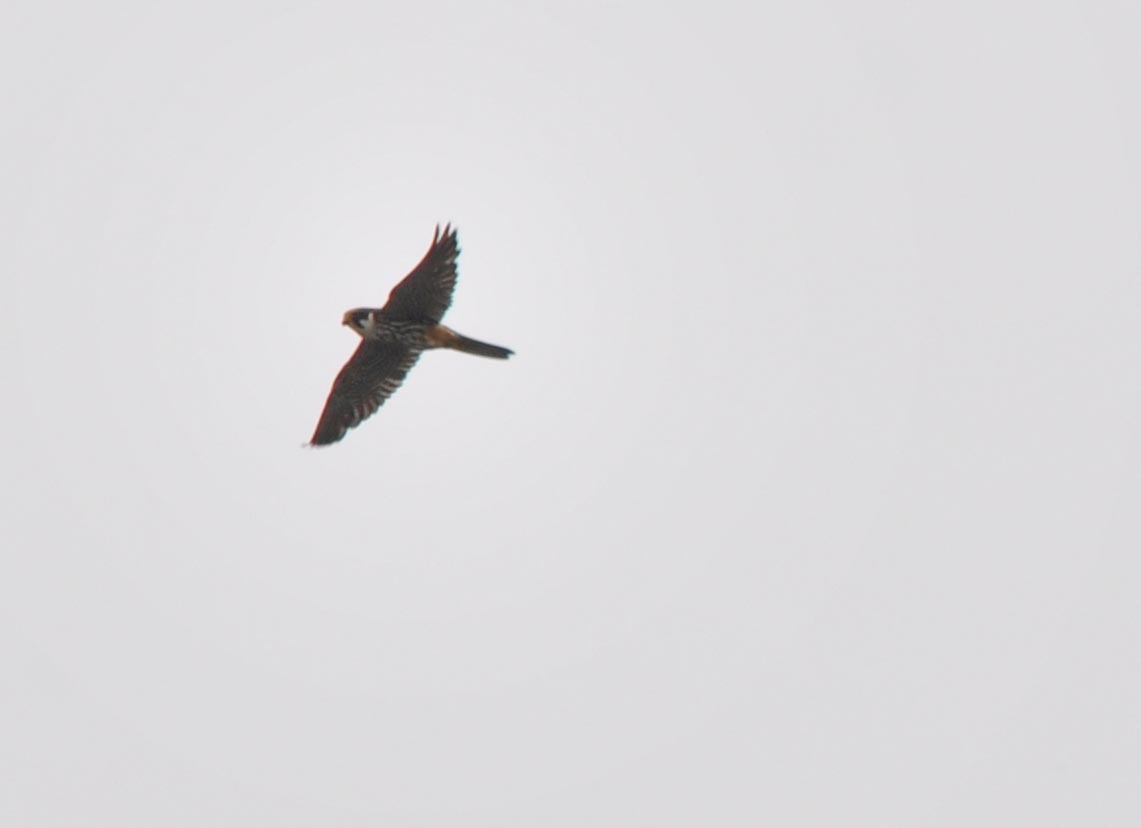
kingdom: Animalia
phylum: Chordata
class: Aves
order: Falconiformes
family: Falconidae
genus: Falco
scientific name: Falco subbuteo
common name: Eurasian hobby
